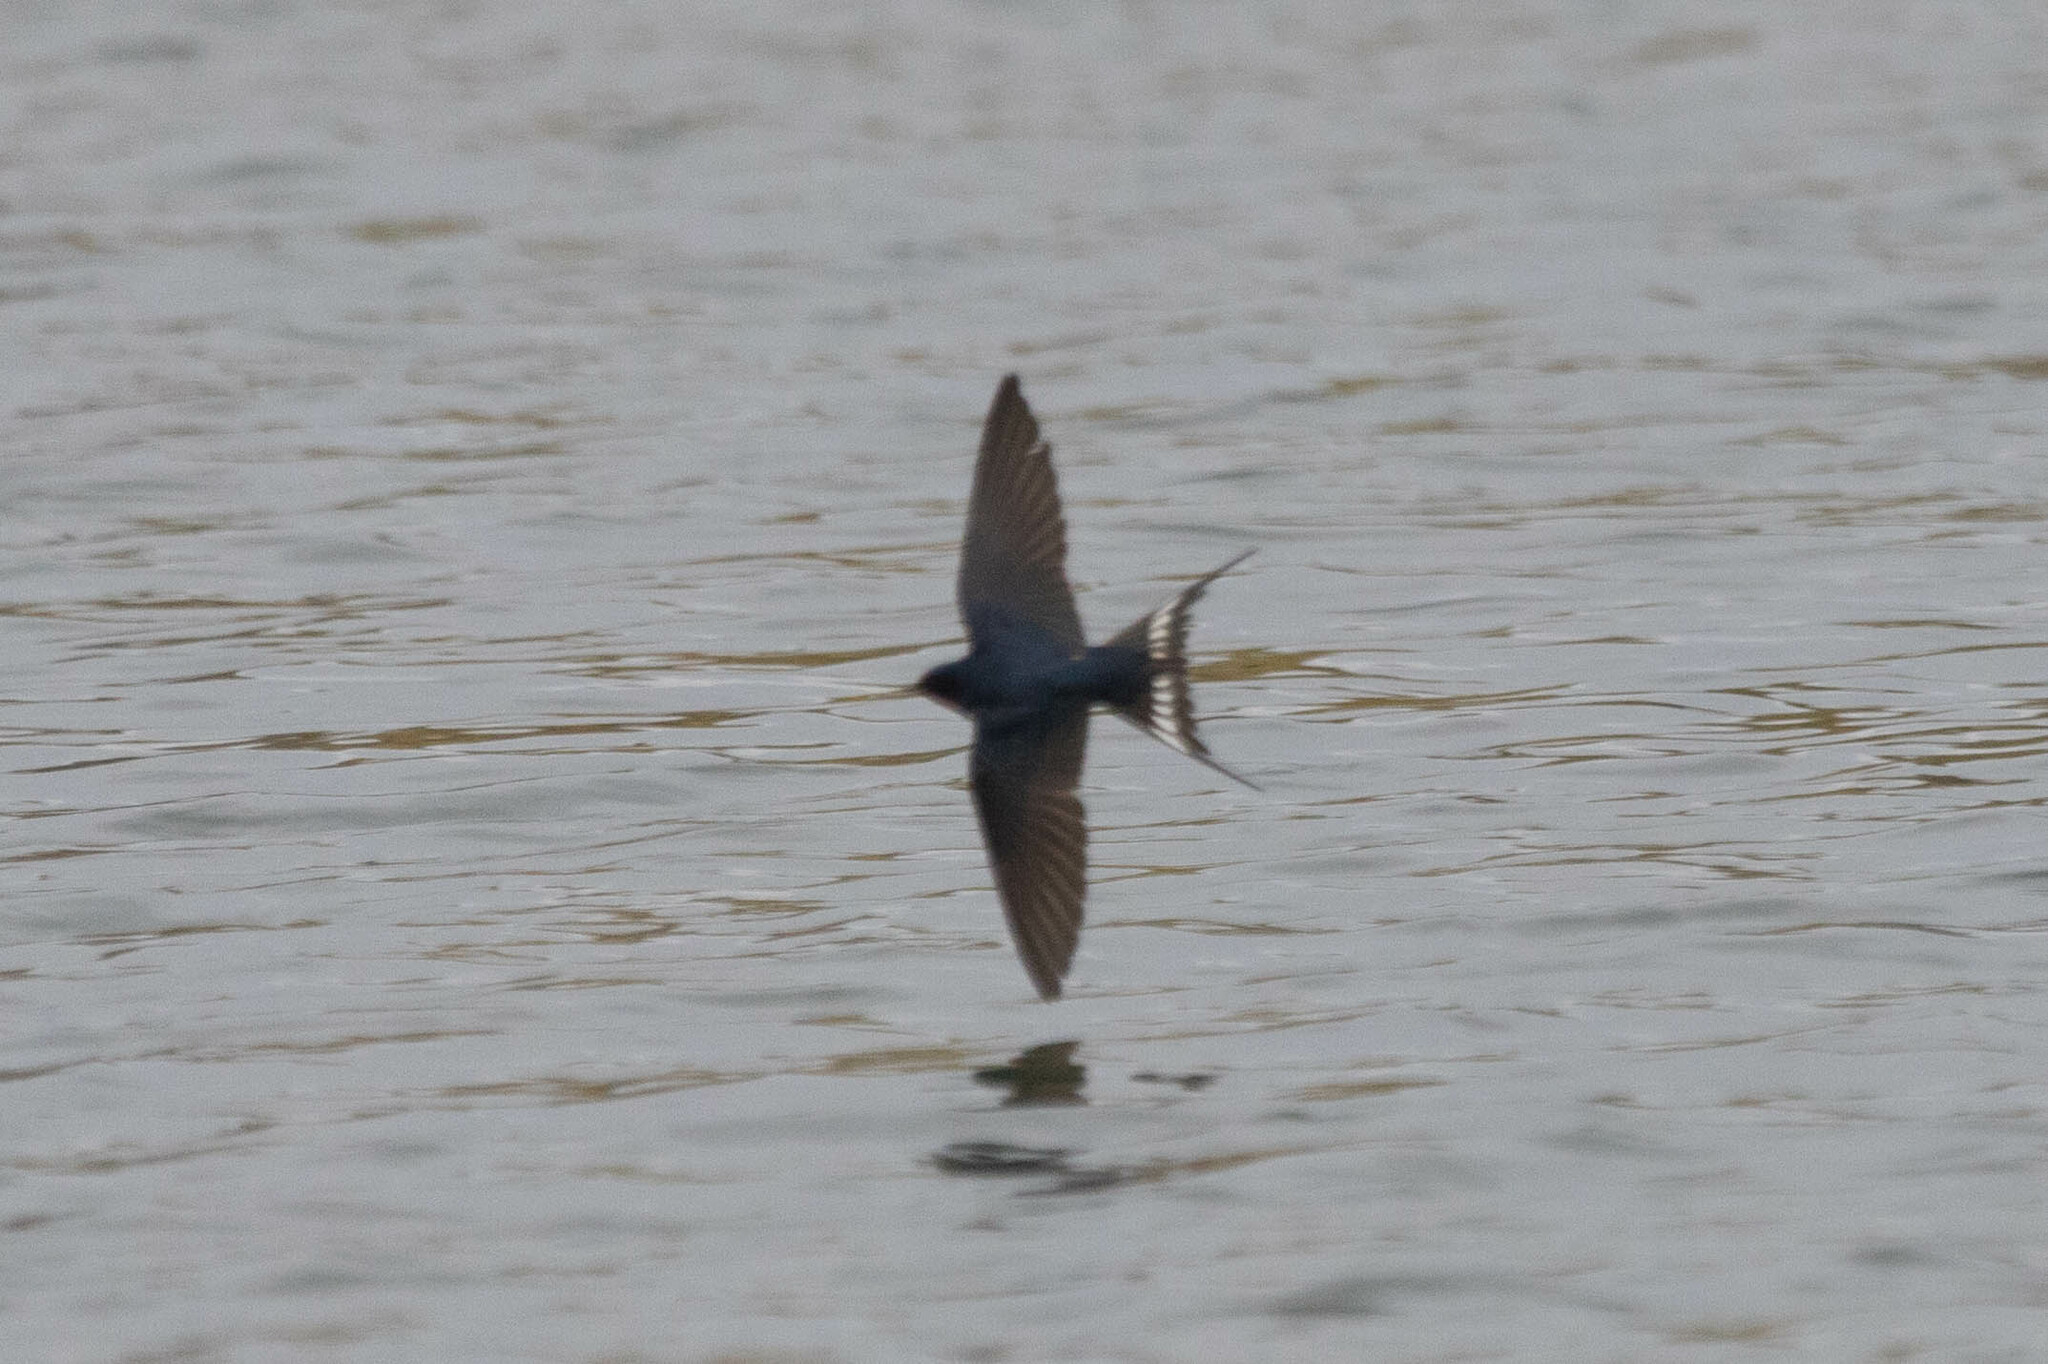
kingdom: Animalia
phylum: Chordata
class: Aves
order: Passeriformes
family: Hirundinidae
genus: Hirundo
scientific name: Hirundo rustica
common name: Barn swallow
